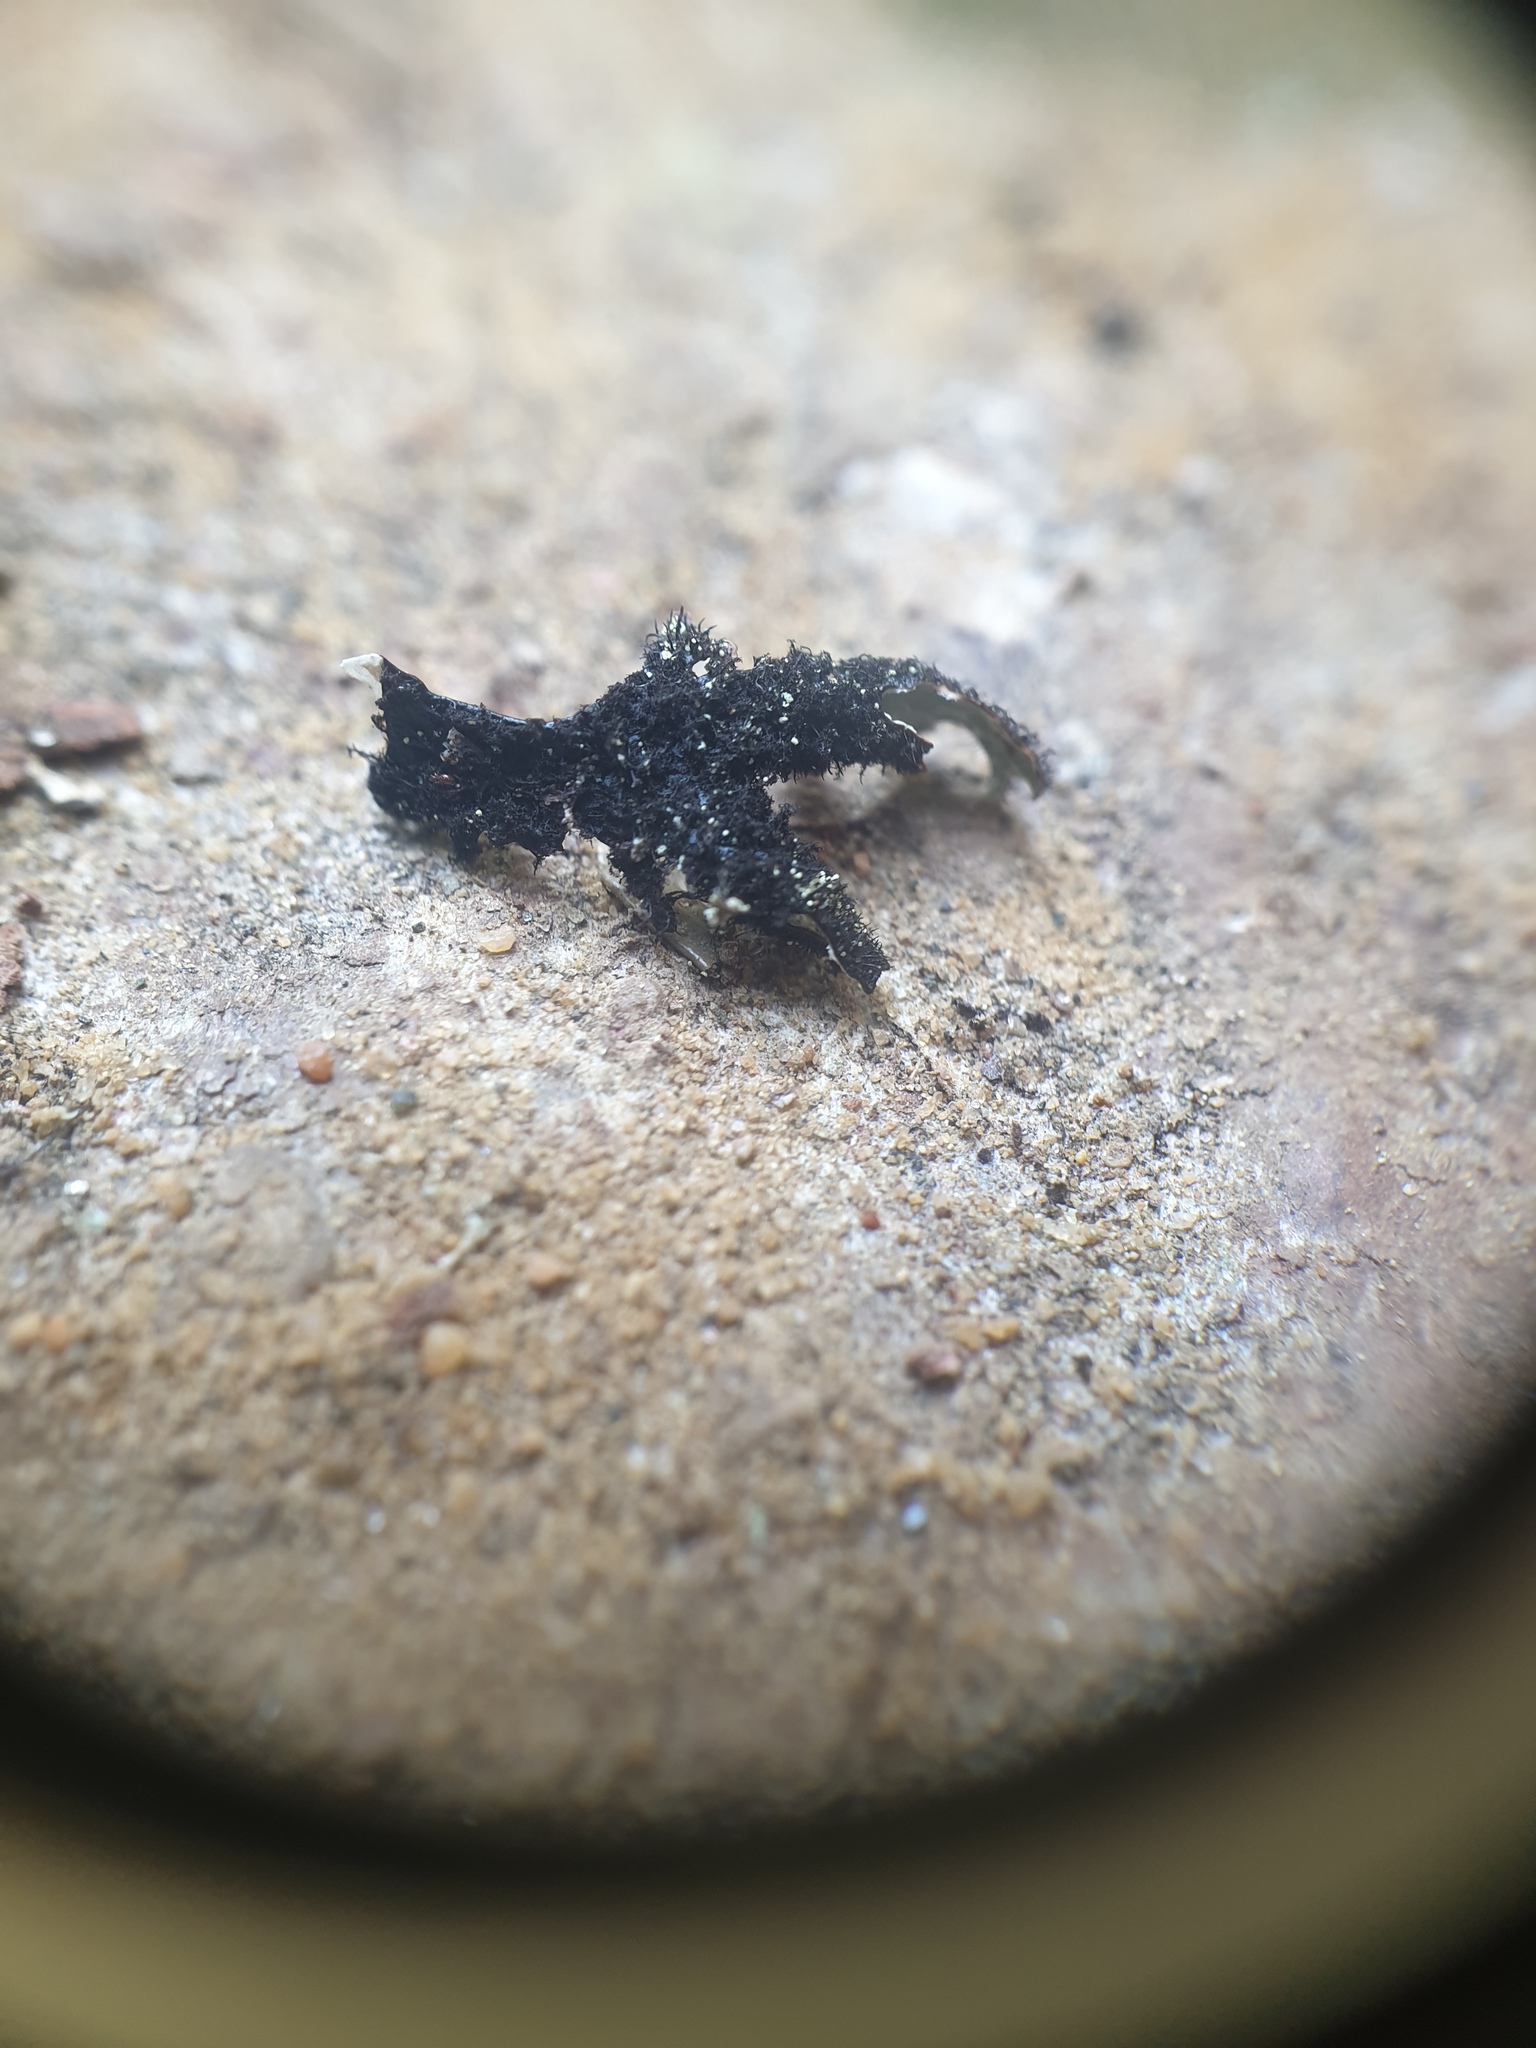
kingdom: Fungi
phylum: Ascomycota
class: Lecanoromycetes
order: Lecanorales
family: Parmeliaceae
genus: Parmelia
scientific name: Parmelia squarrosa
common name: Bottle brush shield lichen
